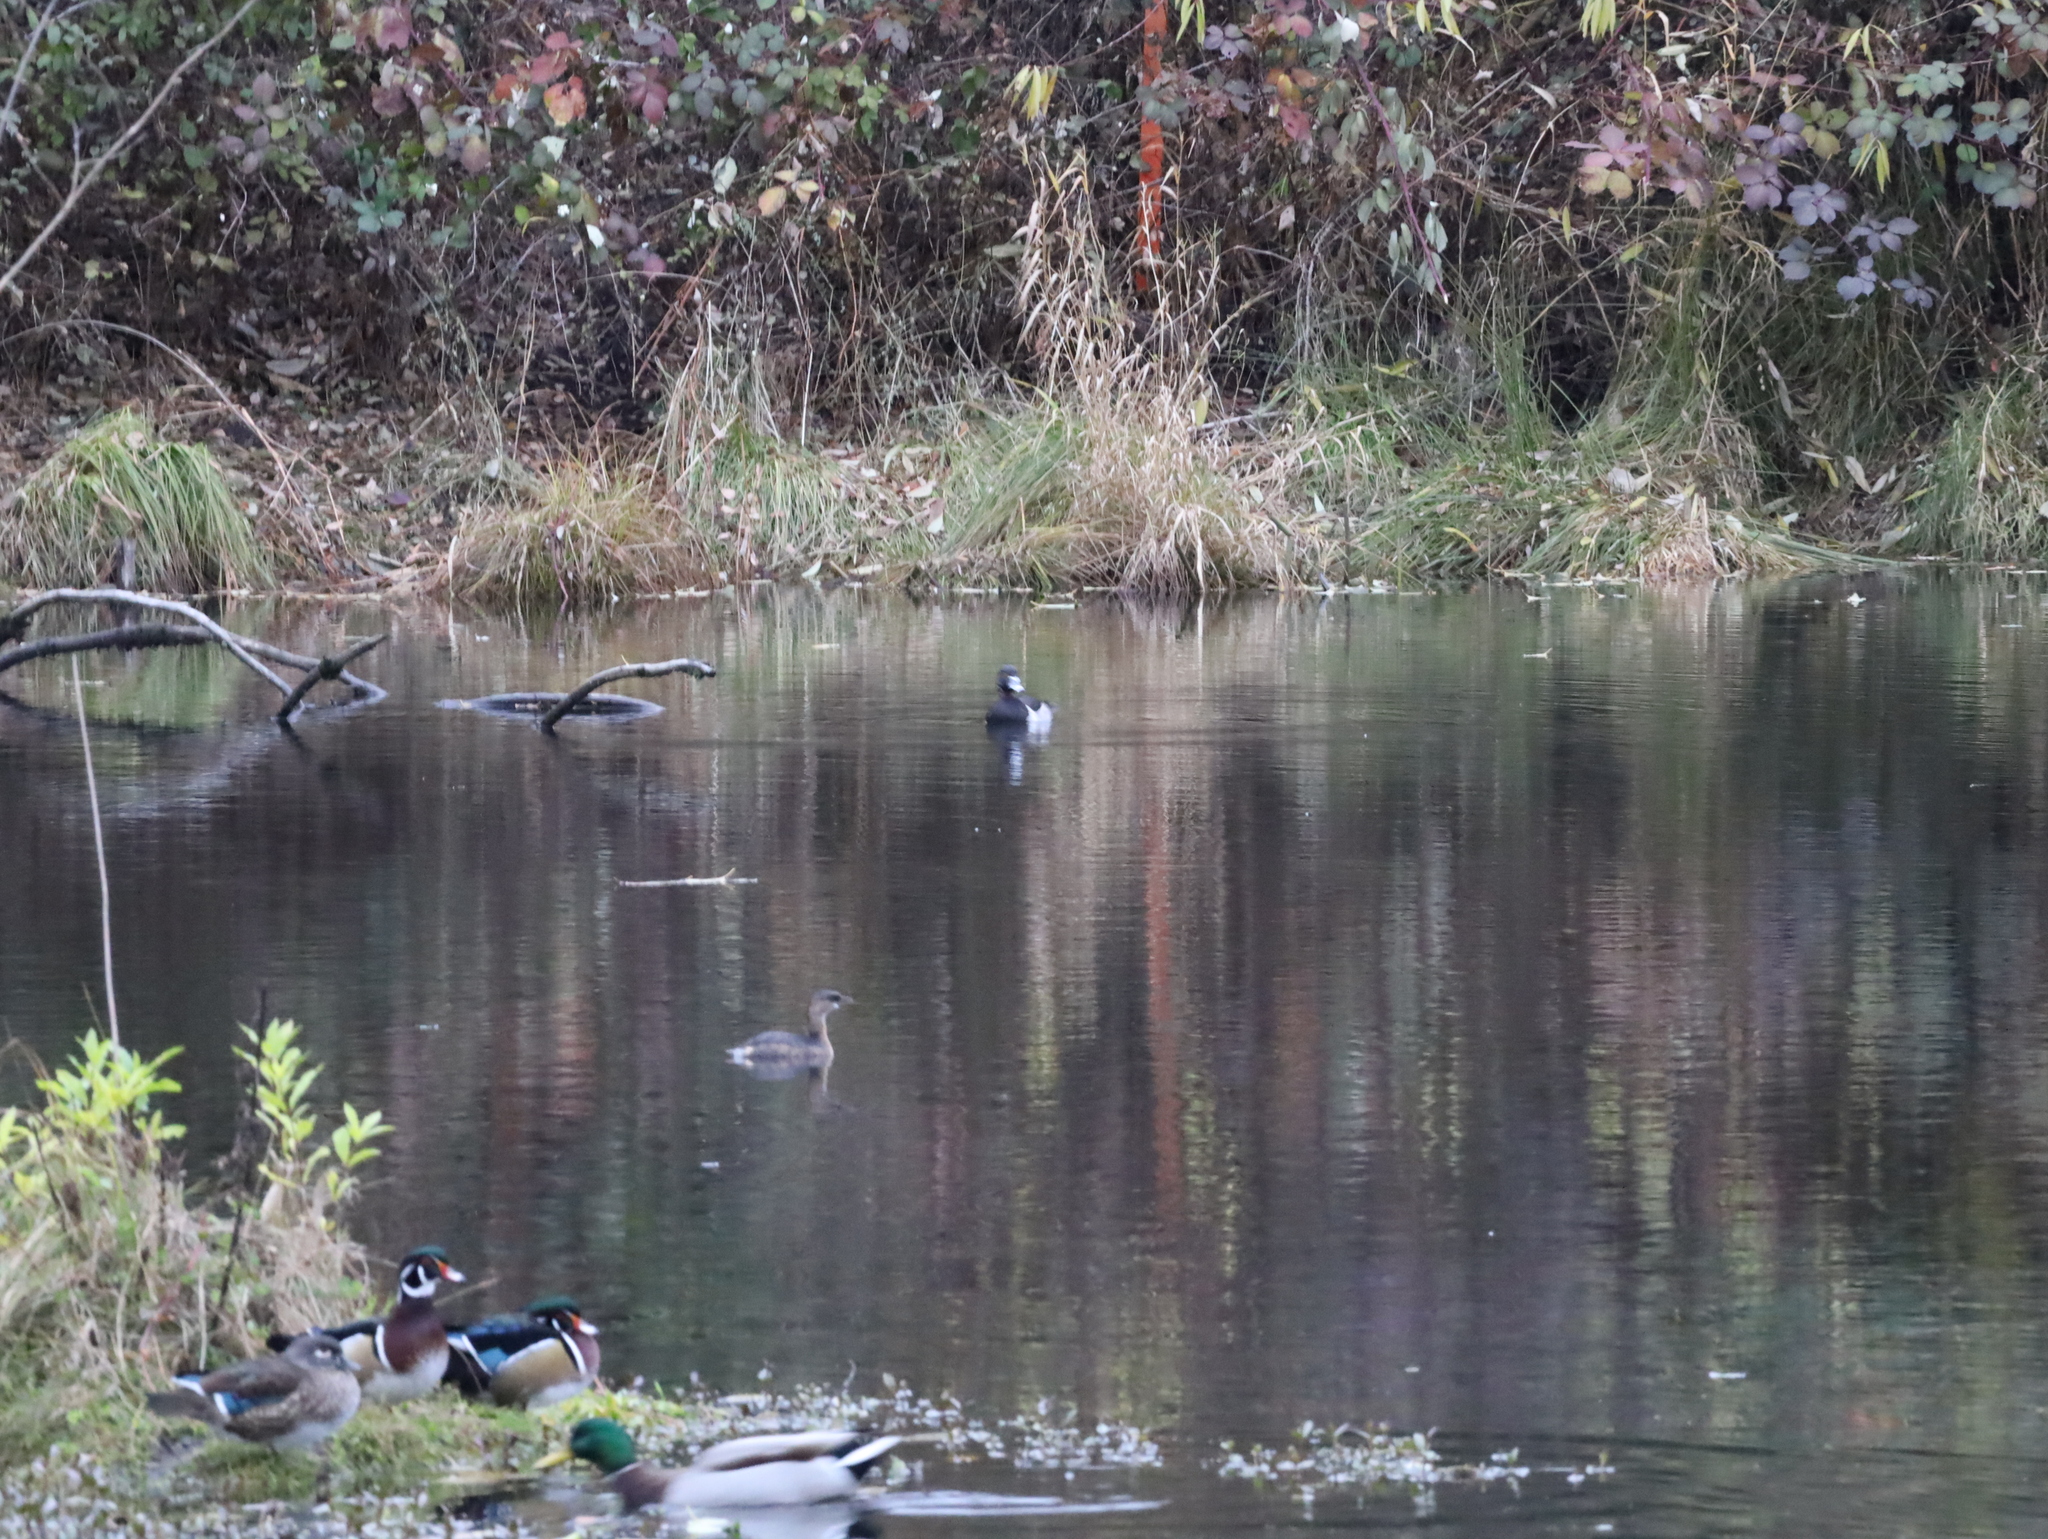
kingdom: Animalia
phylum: Chordata
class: Aves
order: Anseriformes
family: Anatidae
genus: Aix
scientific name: Aix sponsa
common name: Wood duck
